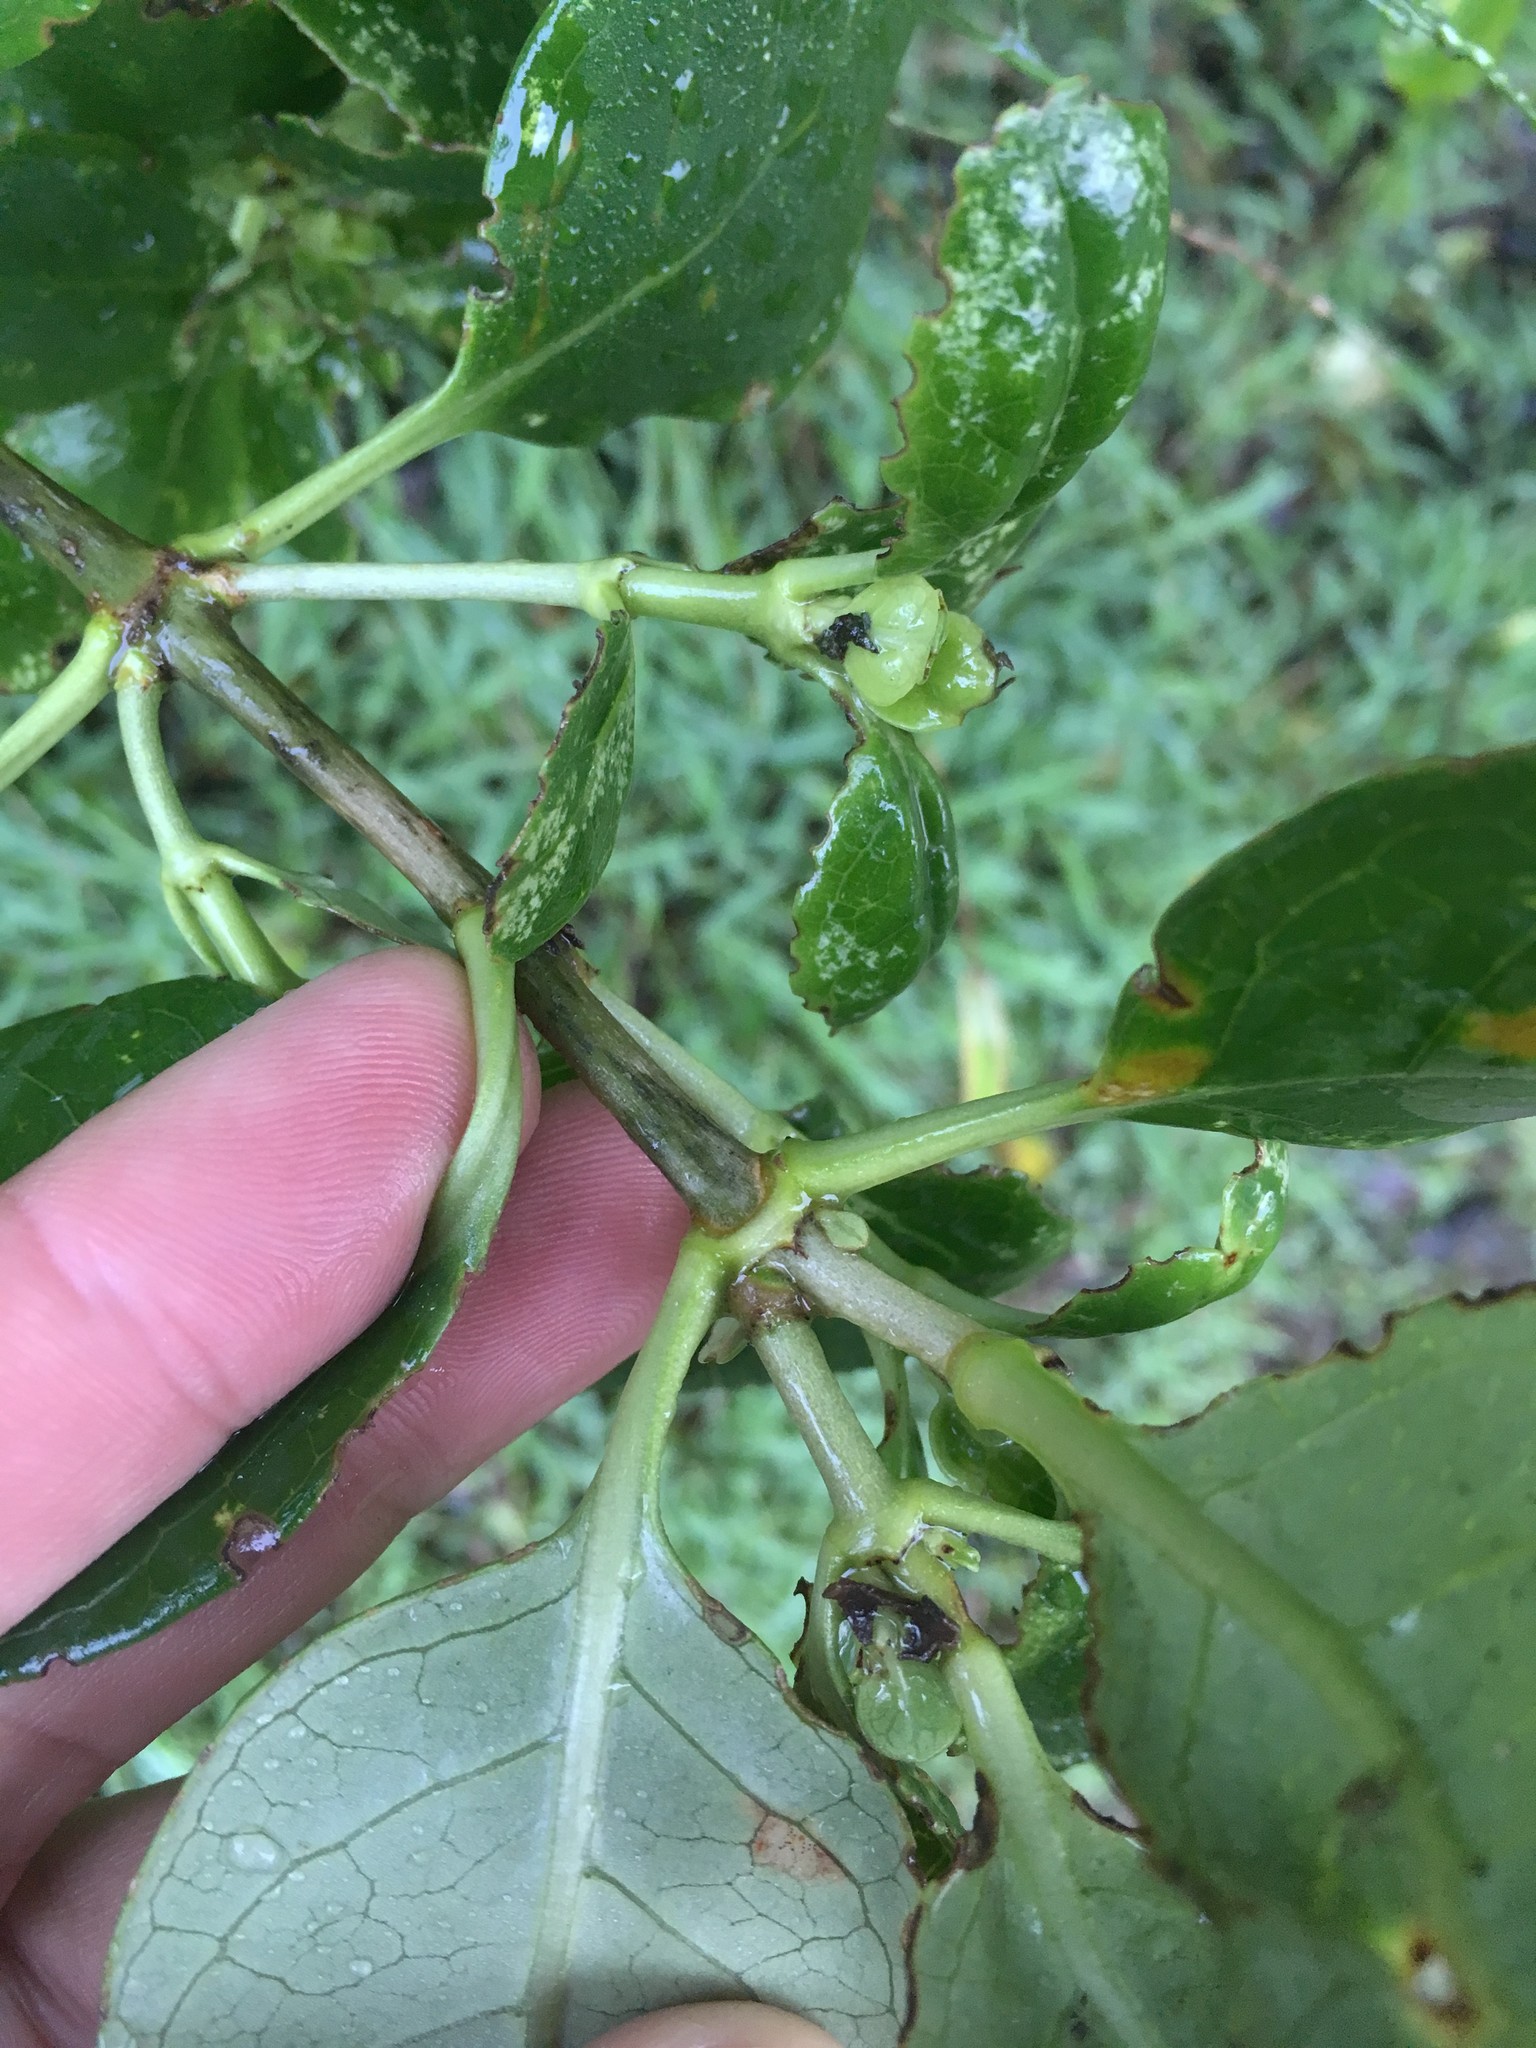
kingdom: Plantae
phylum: Tracheophyta
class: Magnoliopsida
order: Gentianales
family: Rubiaceae
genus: Coprosma
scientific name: Coprosma repens
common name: Tree bedstraw
